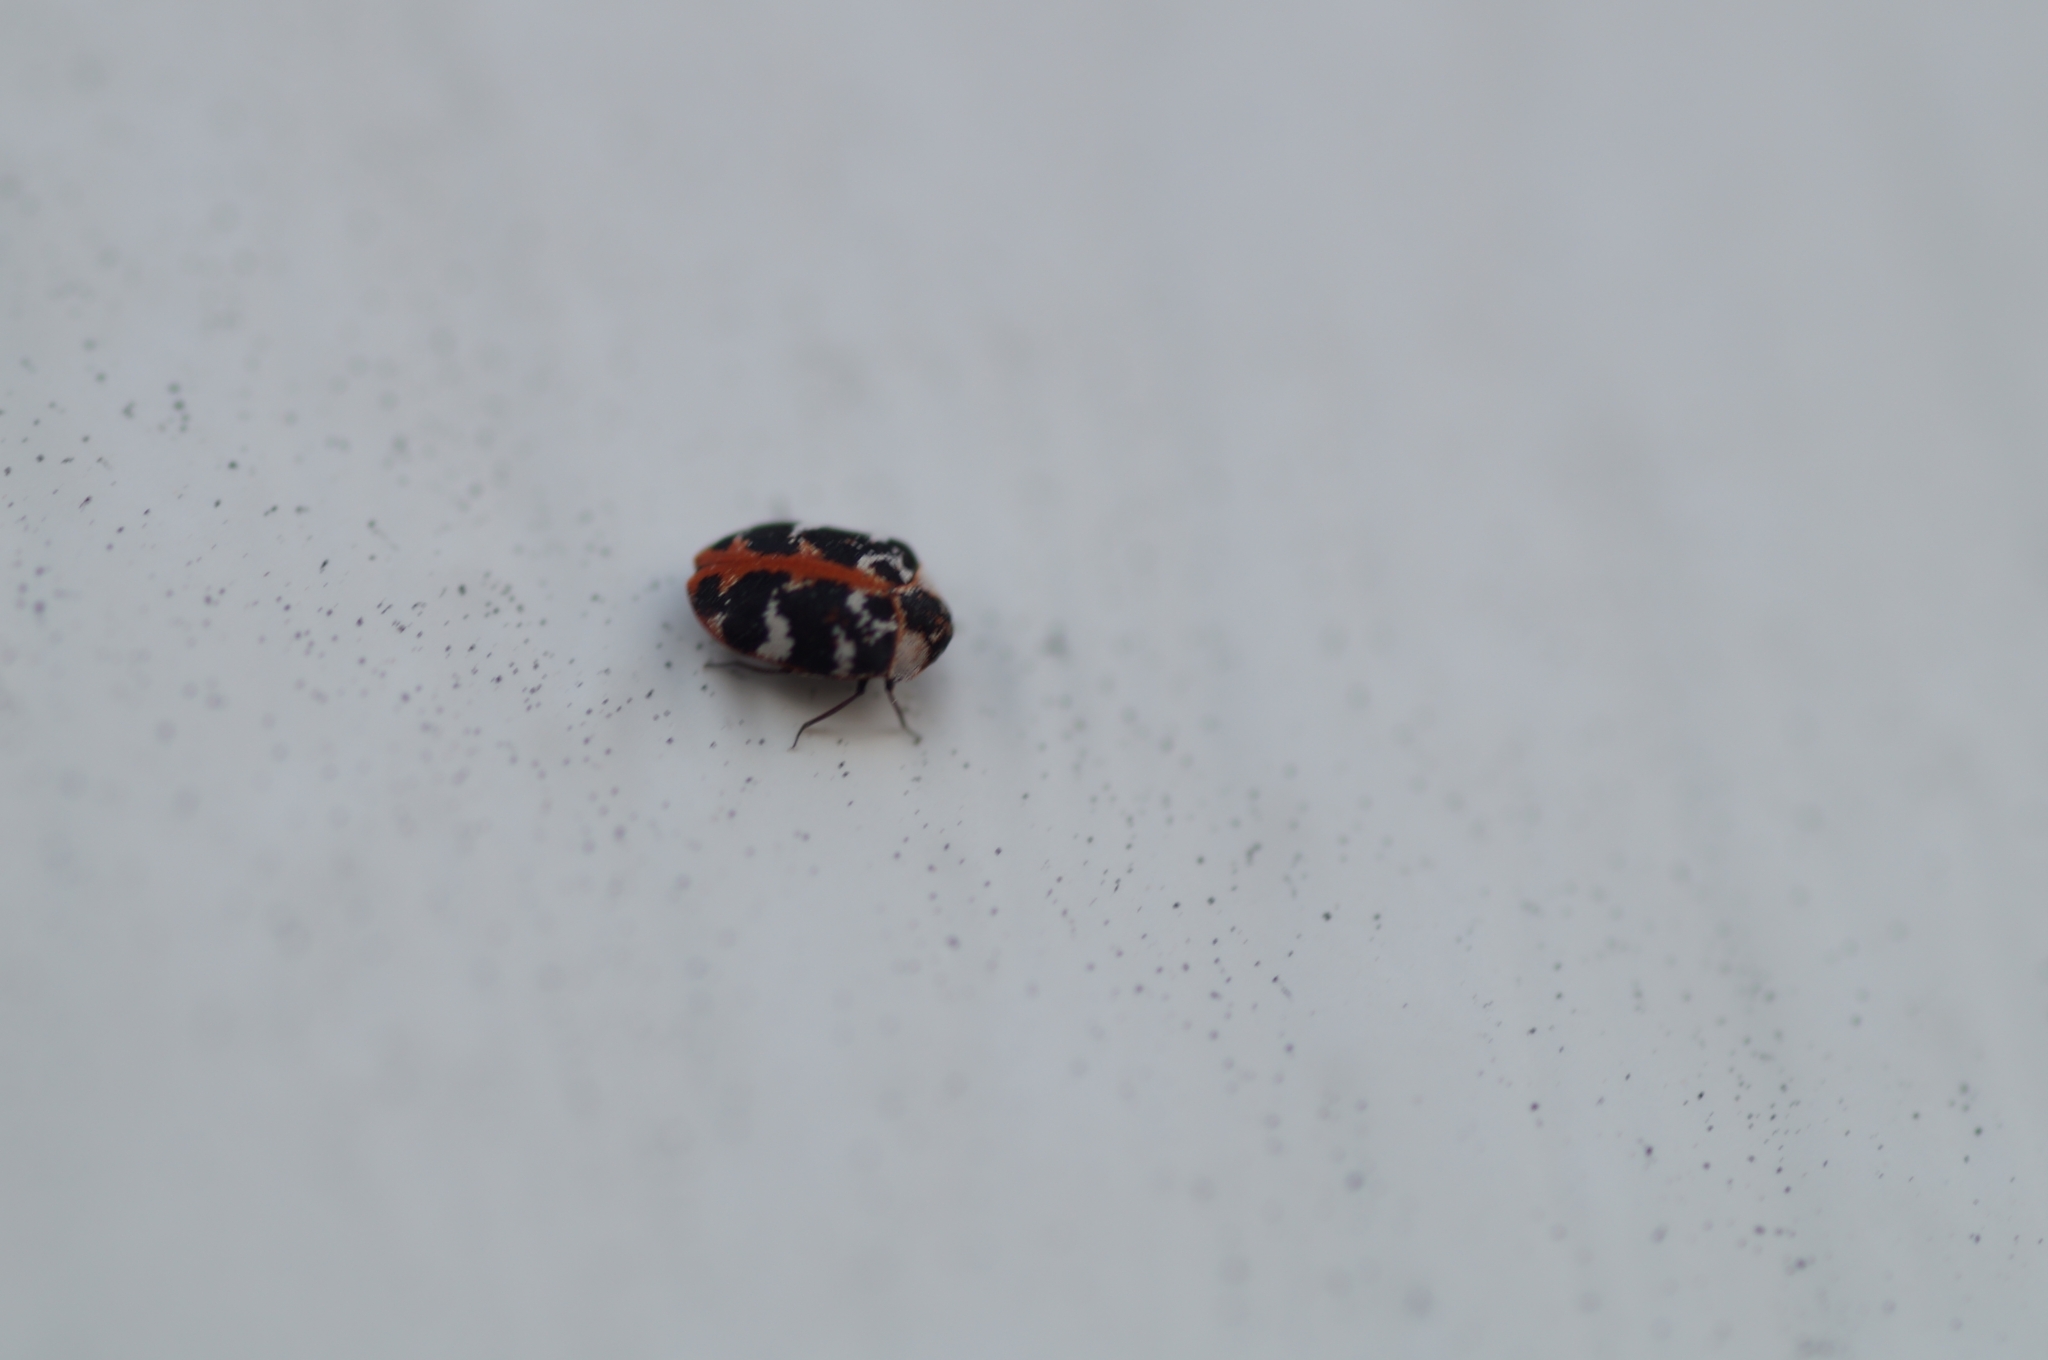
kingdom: Animalia
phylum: Arthropoda
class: Insecta
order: Coleoptera
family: Dermestidae
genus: Anthrenus
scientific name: Anthrenus scrophulariae
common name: Buffalo carpet beetle
